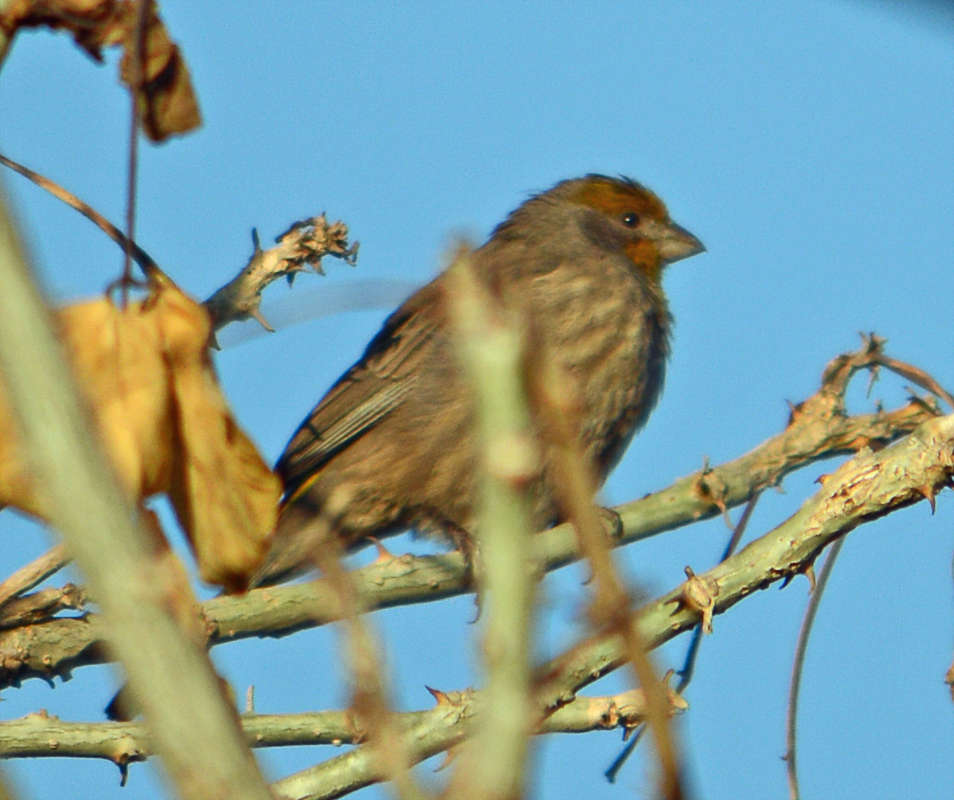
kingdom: Animalia
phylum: Chordata
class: Aves
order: Passeriformes
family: Fringillidae
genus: Haemorhous
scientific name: Haemorhous mexicanus
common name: House finch
